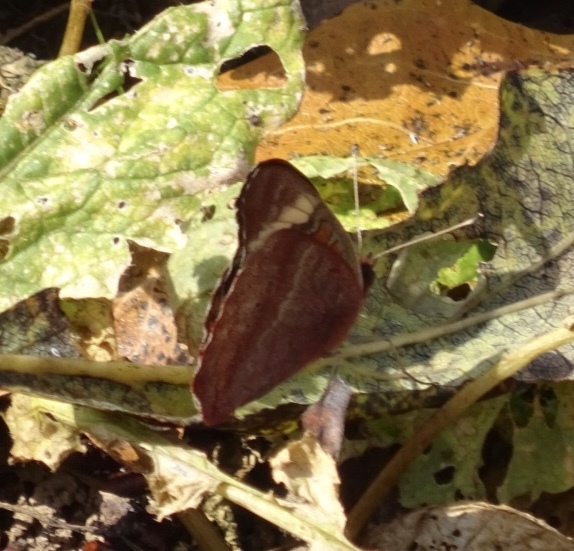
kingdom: Animalia
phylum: Arthropoda
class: Insecta
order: Lepidoptera
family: Nymphalidae
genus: Junonia
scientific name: Junonia coenia
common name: Common buckeye
